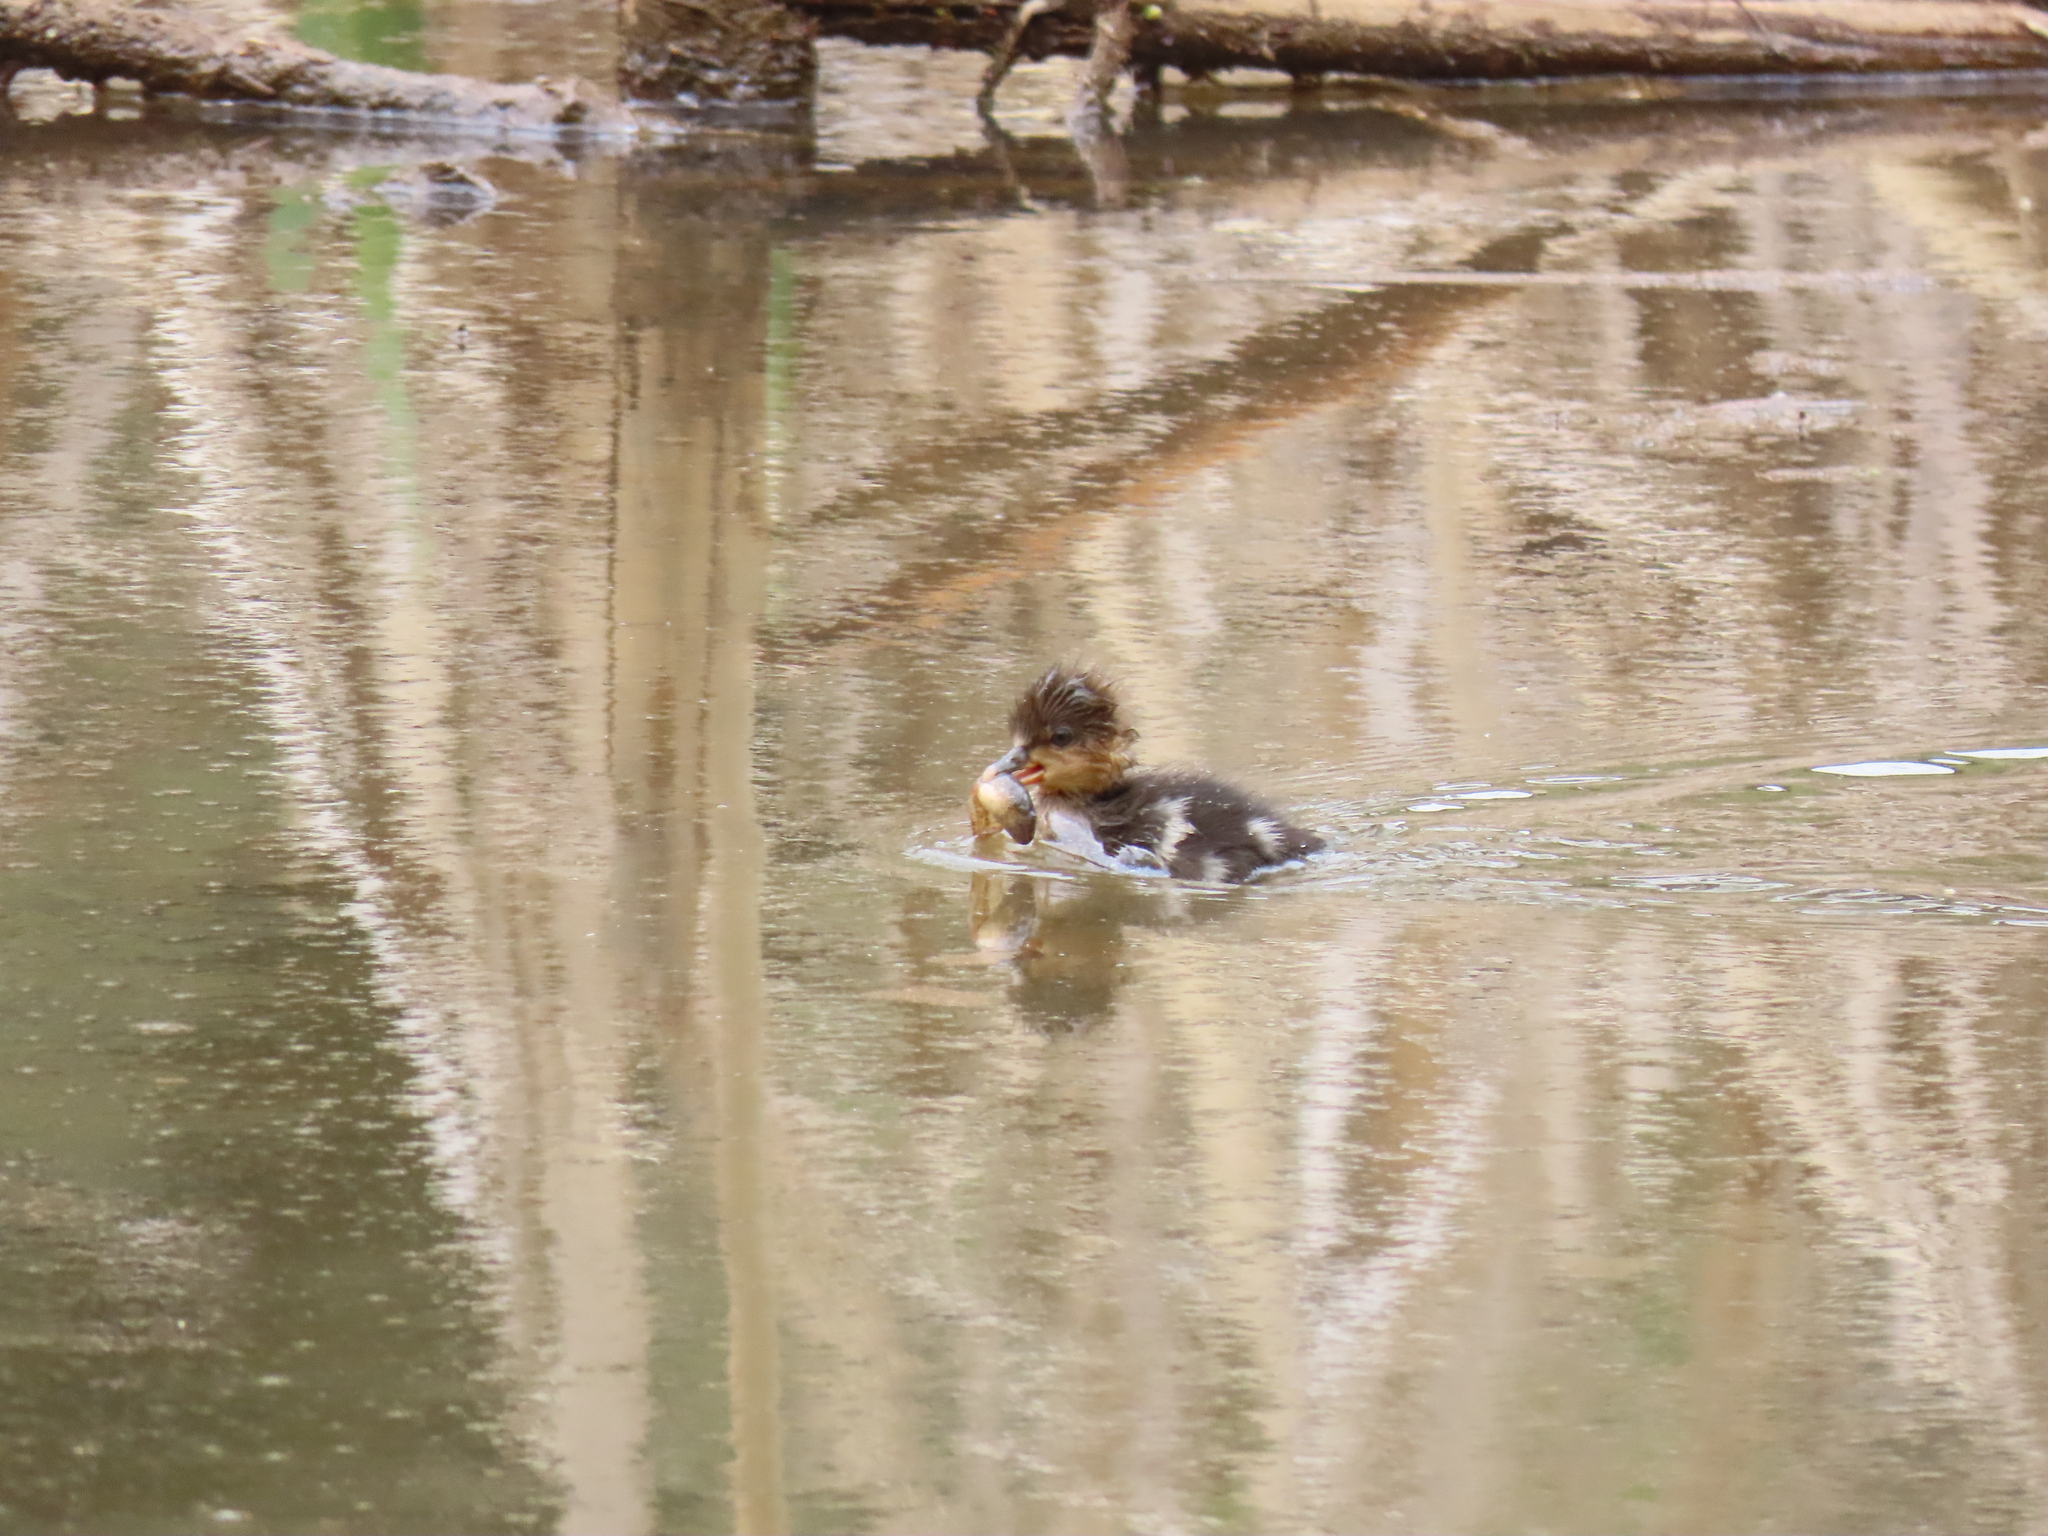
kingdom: Animalia
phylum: Chordata
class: Aves
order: Anseriformes
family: Anatidae
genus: Lophodytes
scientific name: Lophodytes cucullatus
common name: Hooded merganser
